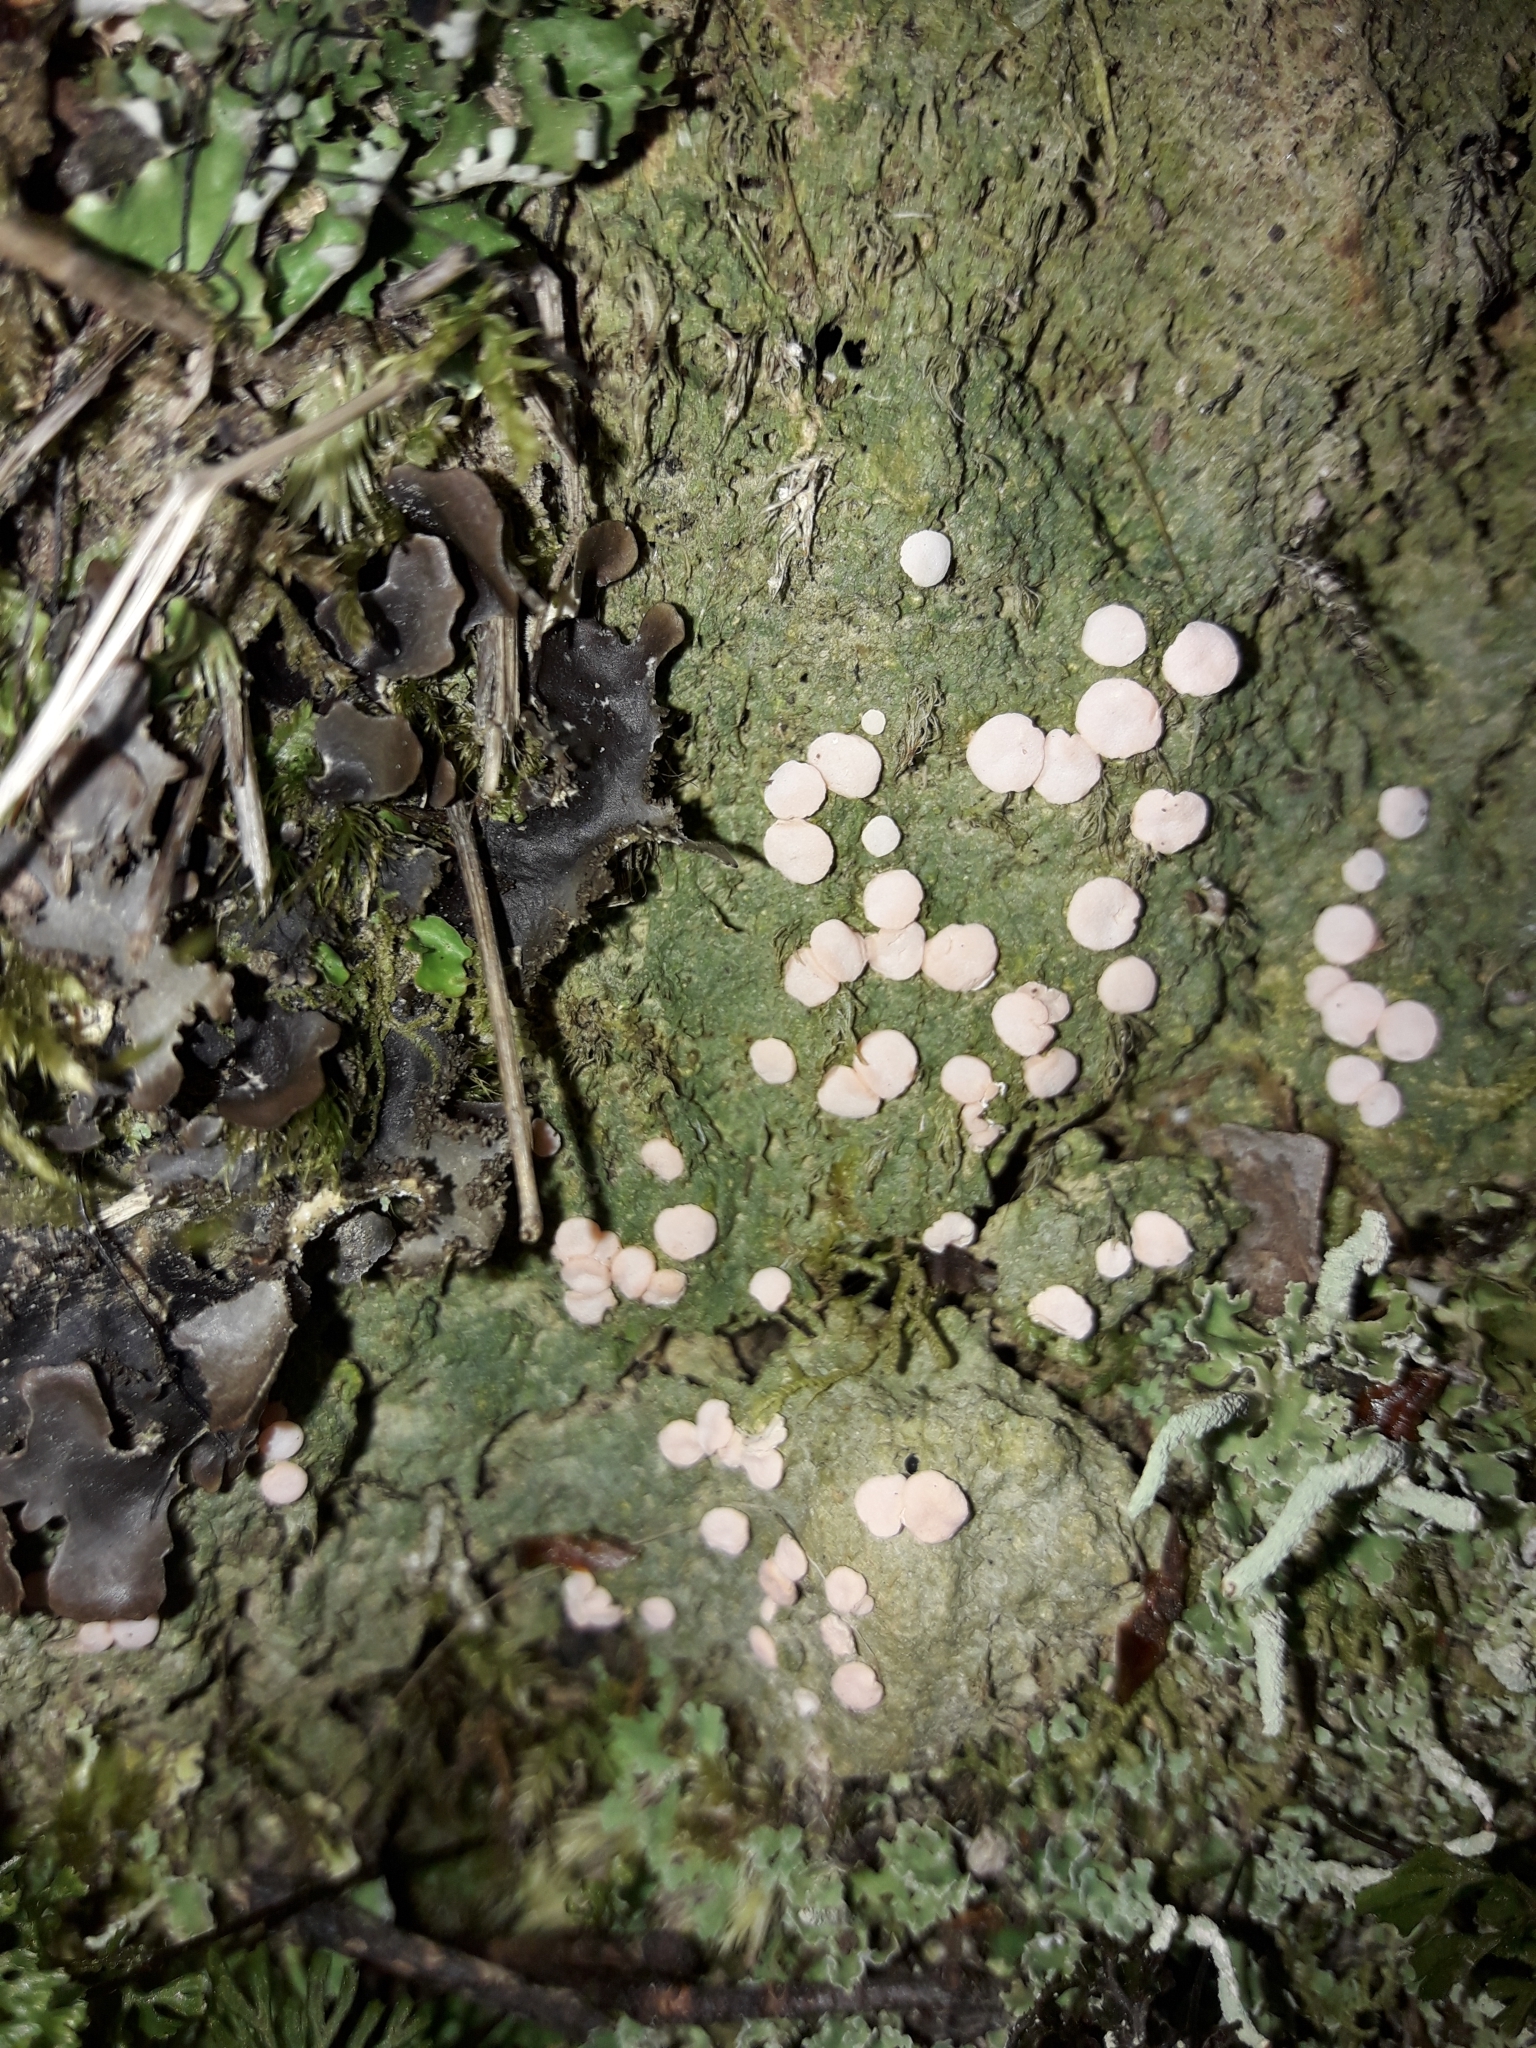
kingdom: Fungi
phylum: Ascomycota
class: Lecanoromycetes
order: Pertusariales
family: Icmadophilaceae
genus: Dibaeis
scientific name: Dibaeis absoluta
